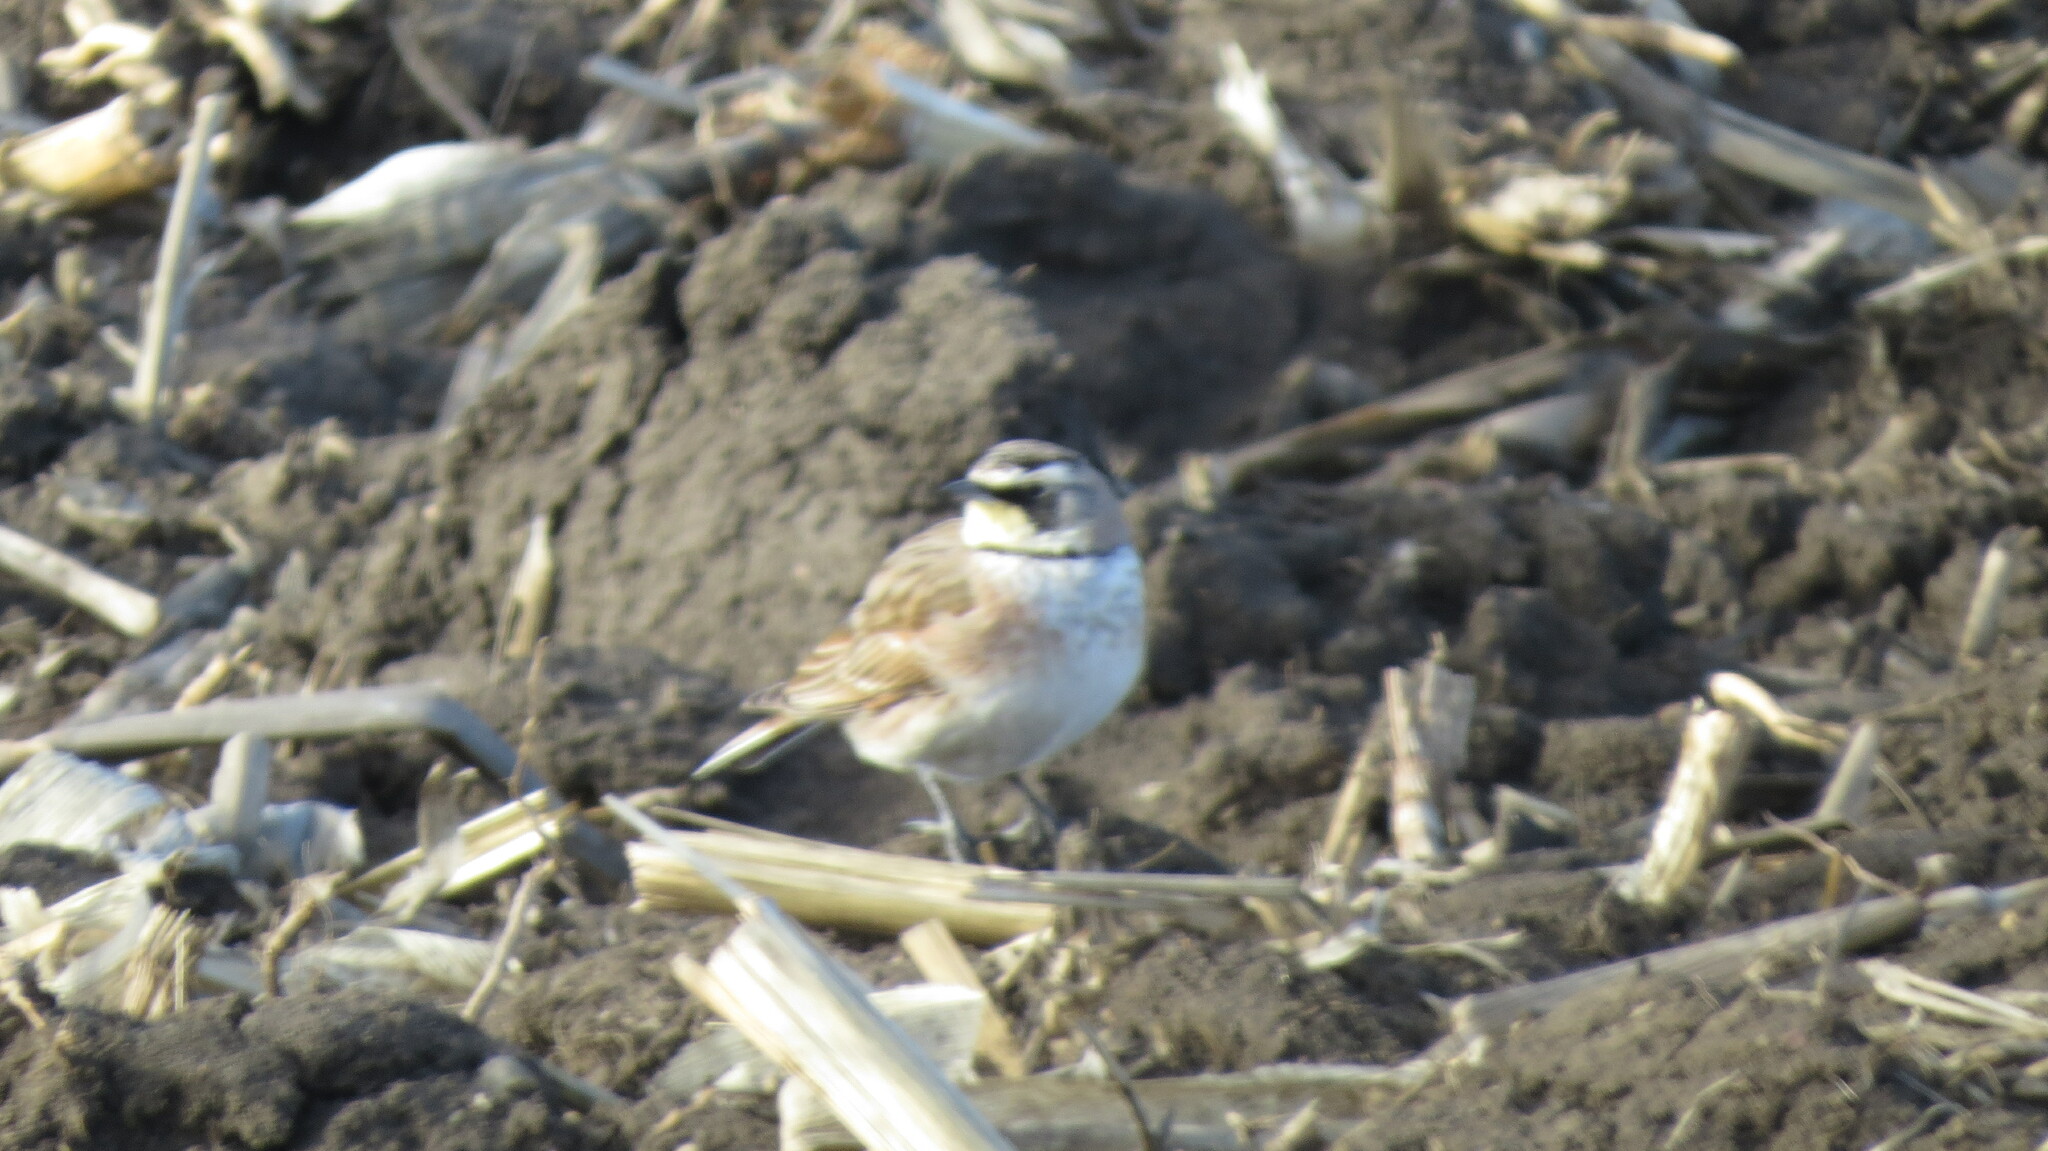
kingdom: Animalia
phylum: Chordata
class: Aves
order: Passeriformes
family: Alaudidae
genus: Eremophila
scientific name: Eremophila alpestris
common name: Horned lark
